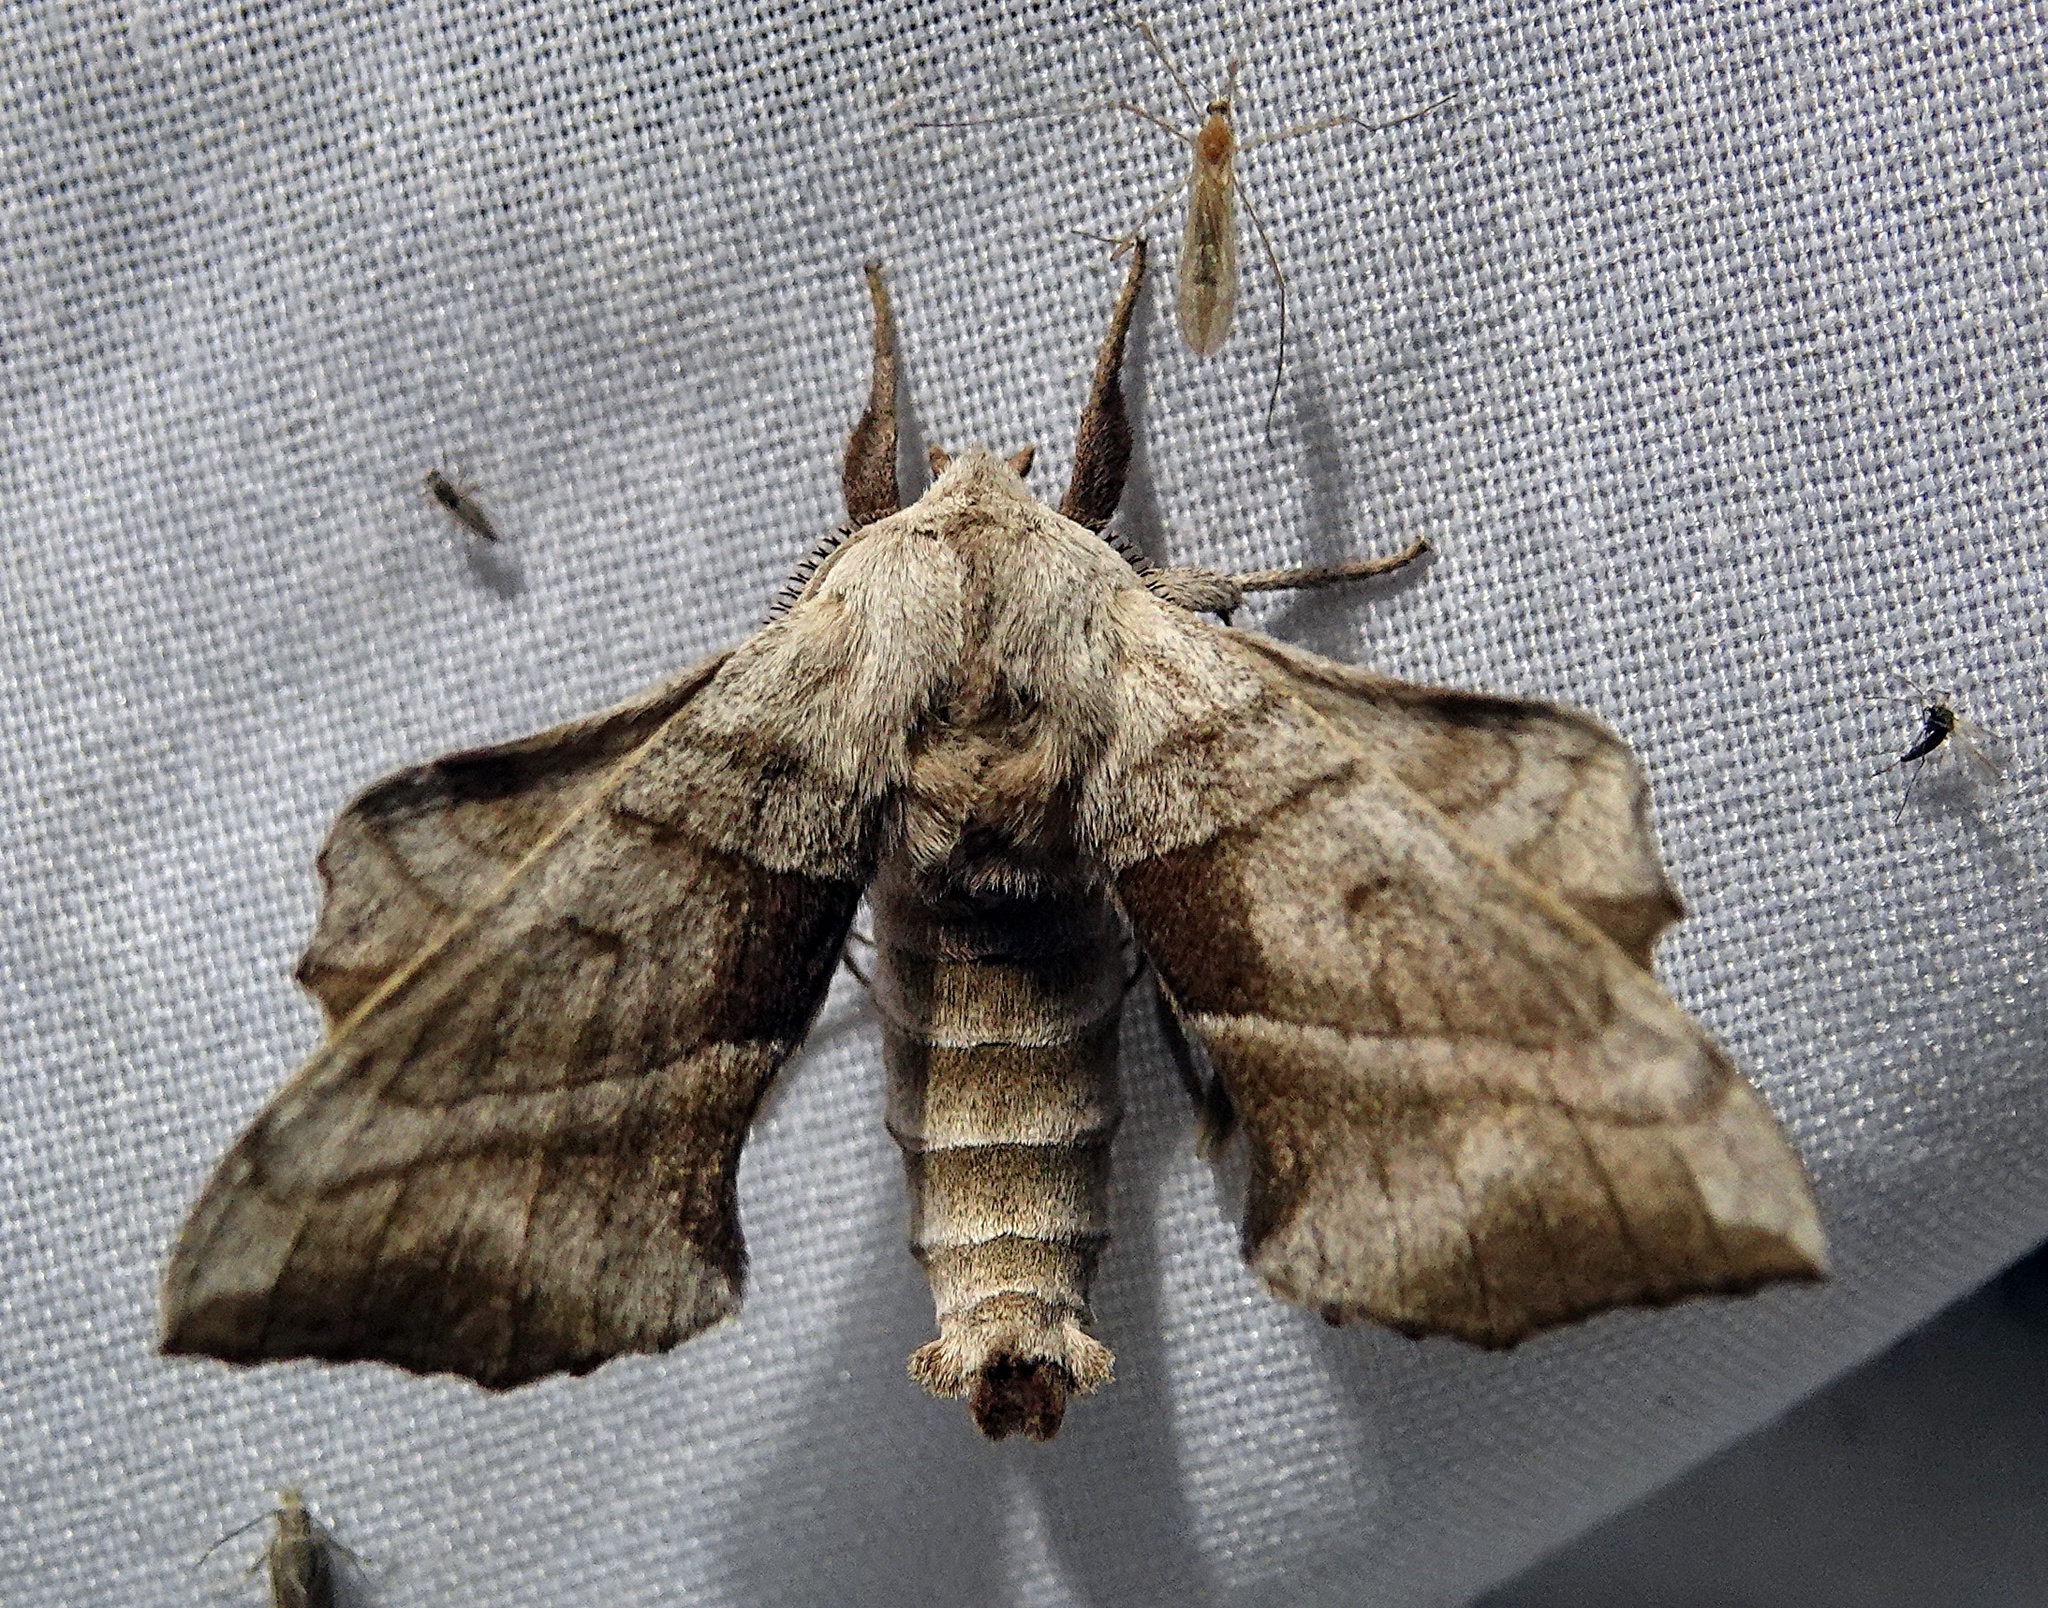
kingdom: Animalia
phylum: Arthropoda
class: Insecta
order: Lepidoptera
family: Sphingidae
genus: Amorpha
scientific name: Amorpha juglandis
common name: Walnut sphinx
